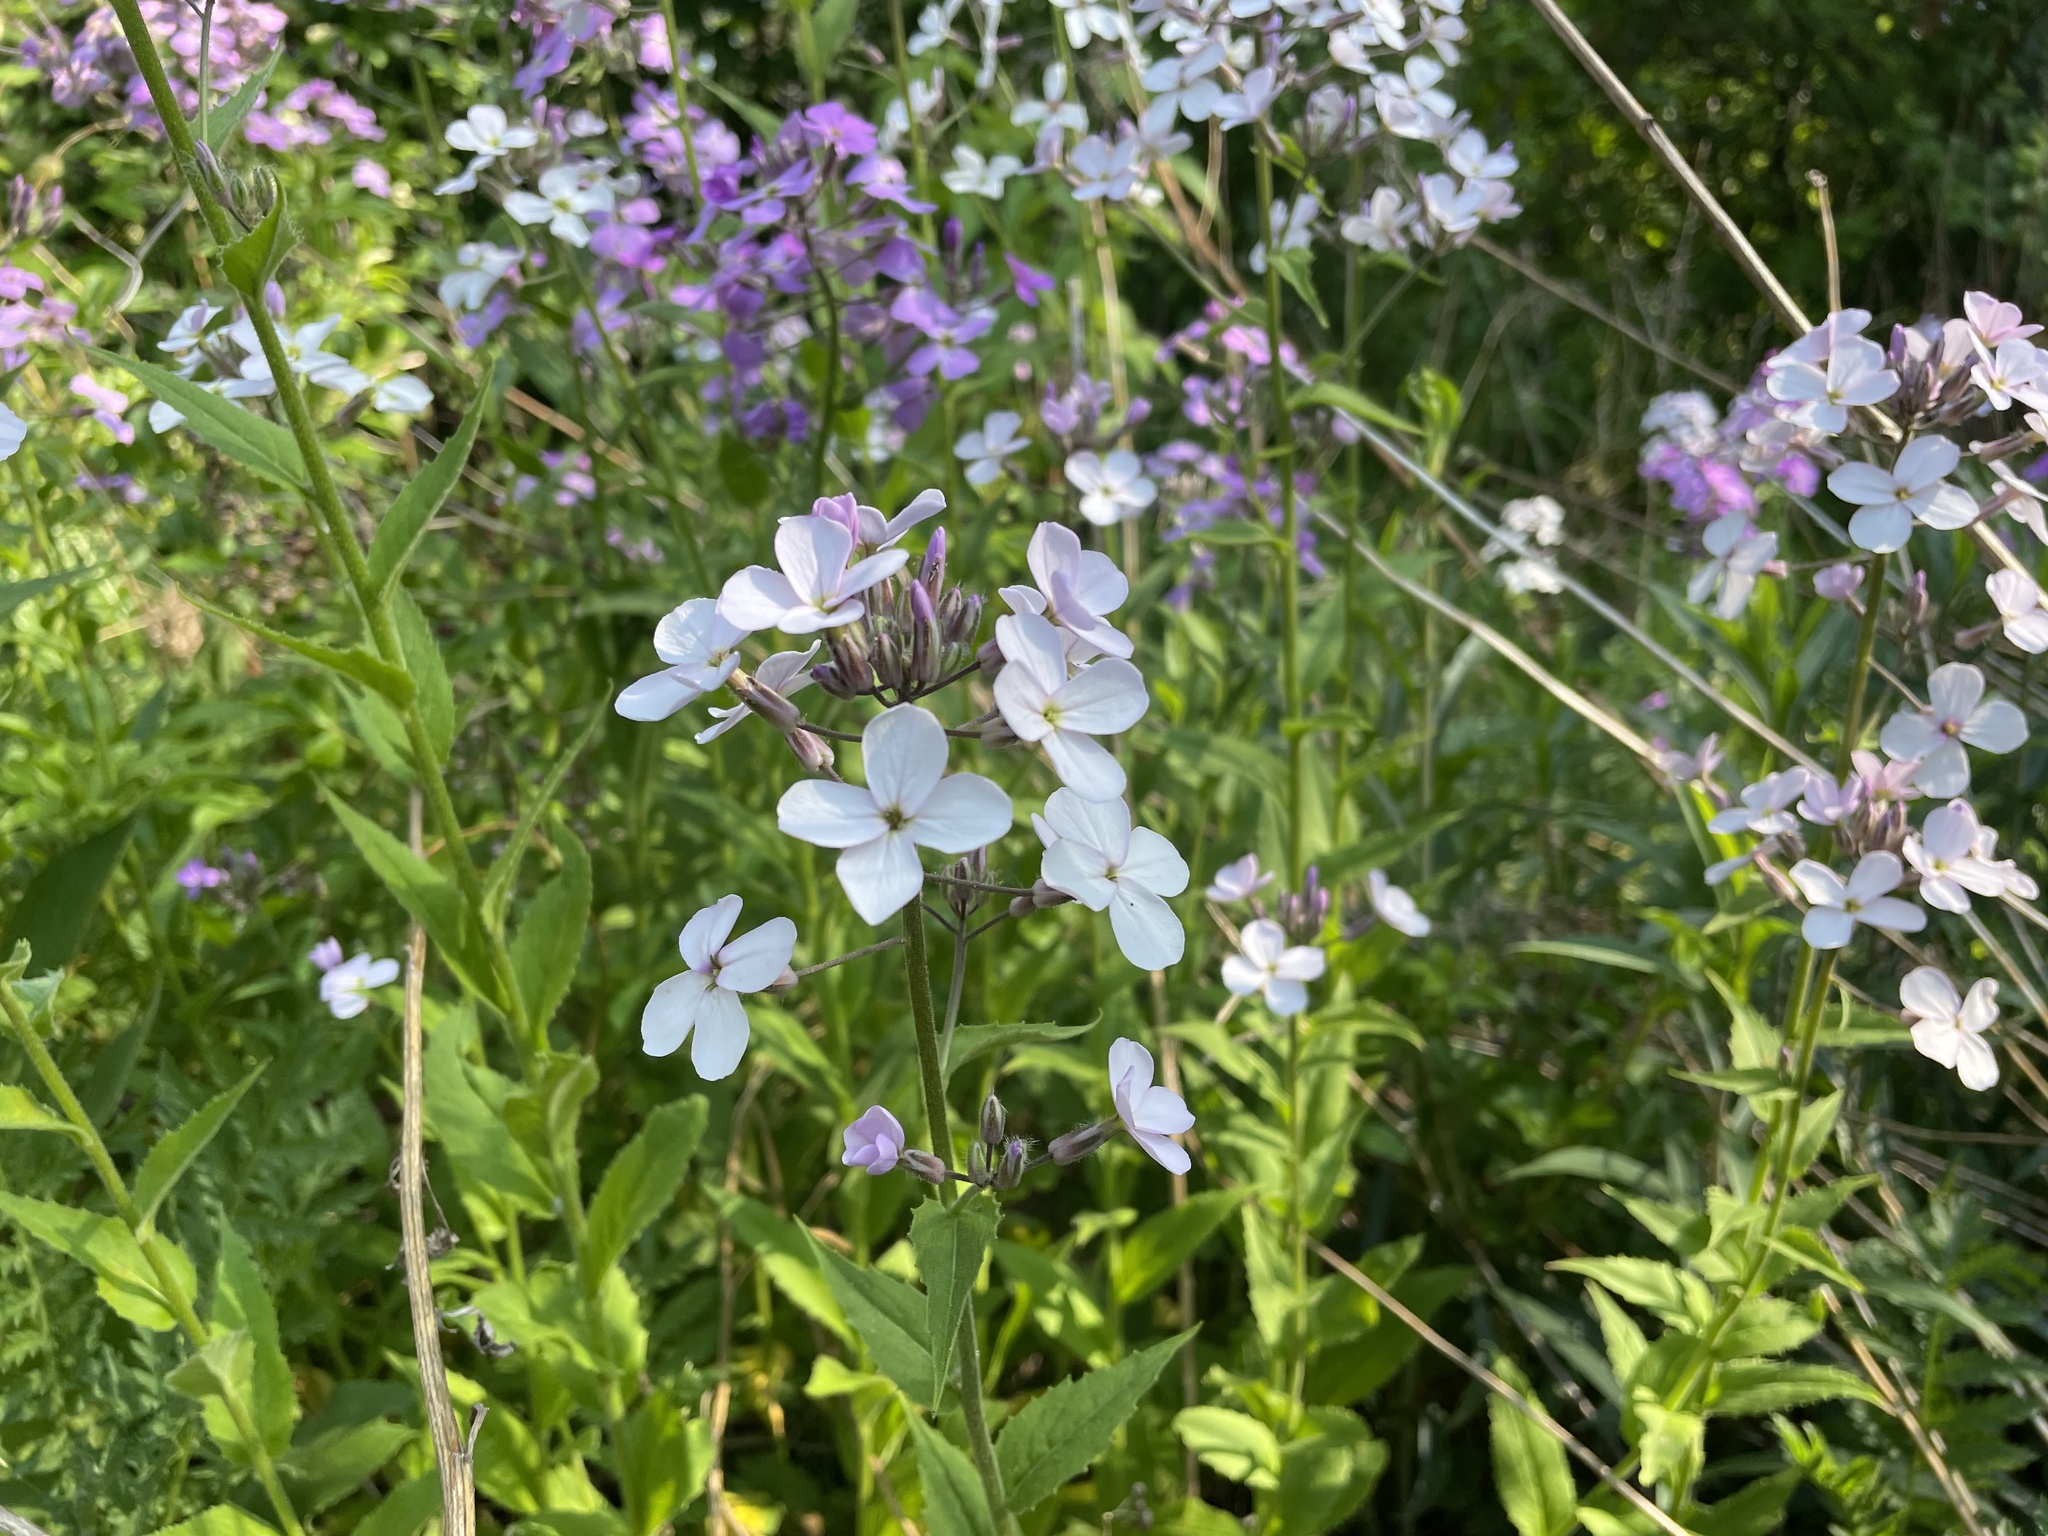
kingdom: Plantae
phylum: Tracheophyta
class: Magnoliopsida
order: Brassicales
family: Brassicaceae
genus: Hesperis
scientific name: Hesperis matronalis
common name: Dame's-violet
